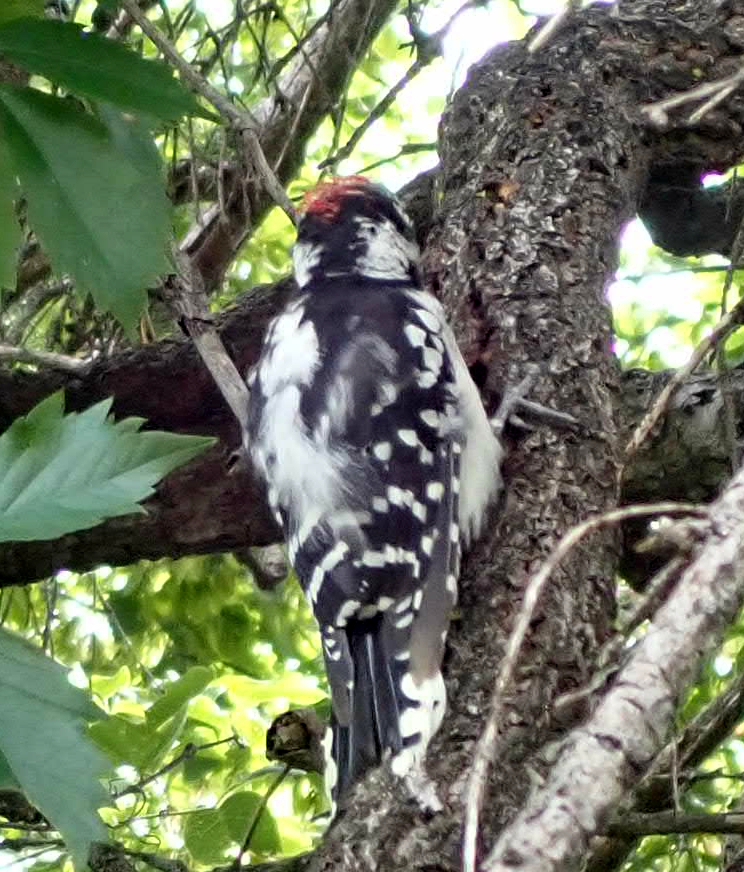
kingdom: Animalia
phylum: Chordata
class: Aves
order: Piciformes
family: Picidae
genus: Dryobates
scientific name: Dryobates pubescens
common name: Downy woodpecker
